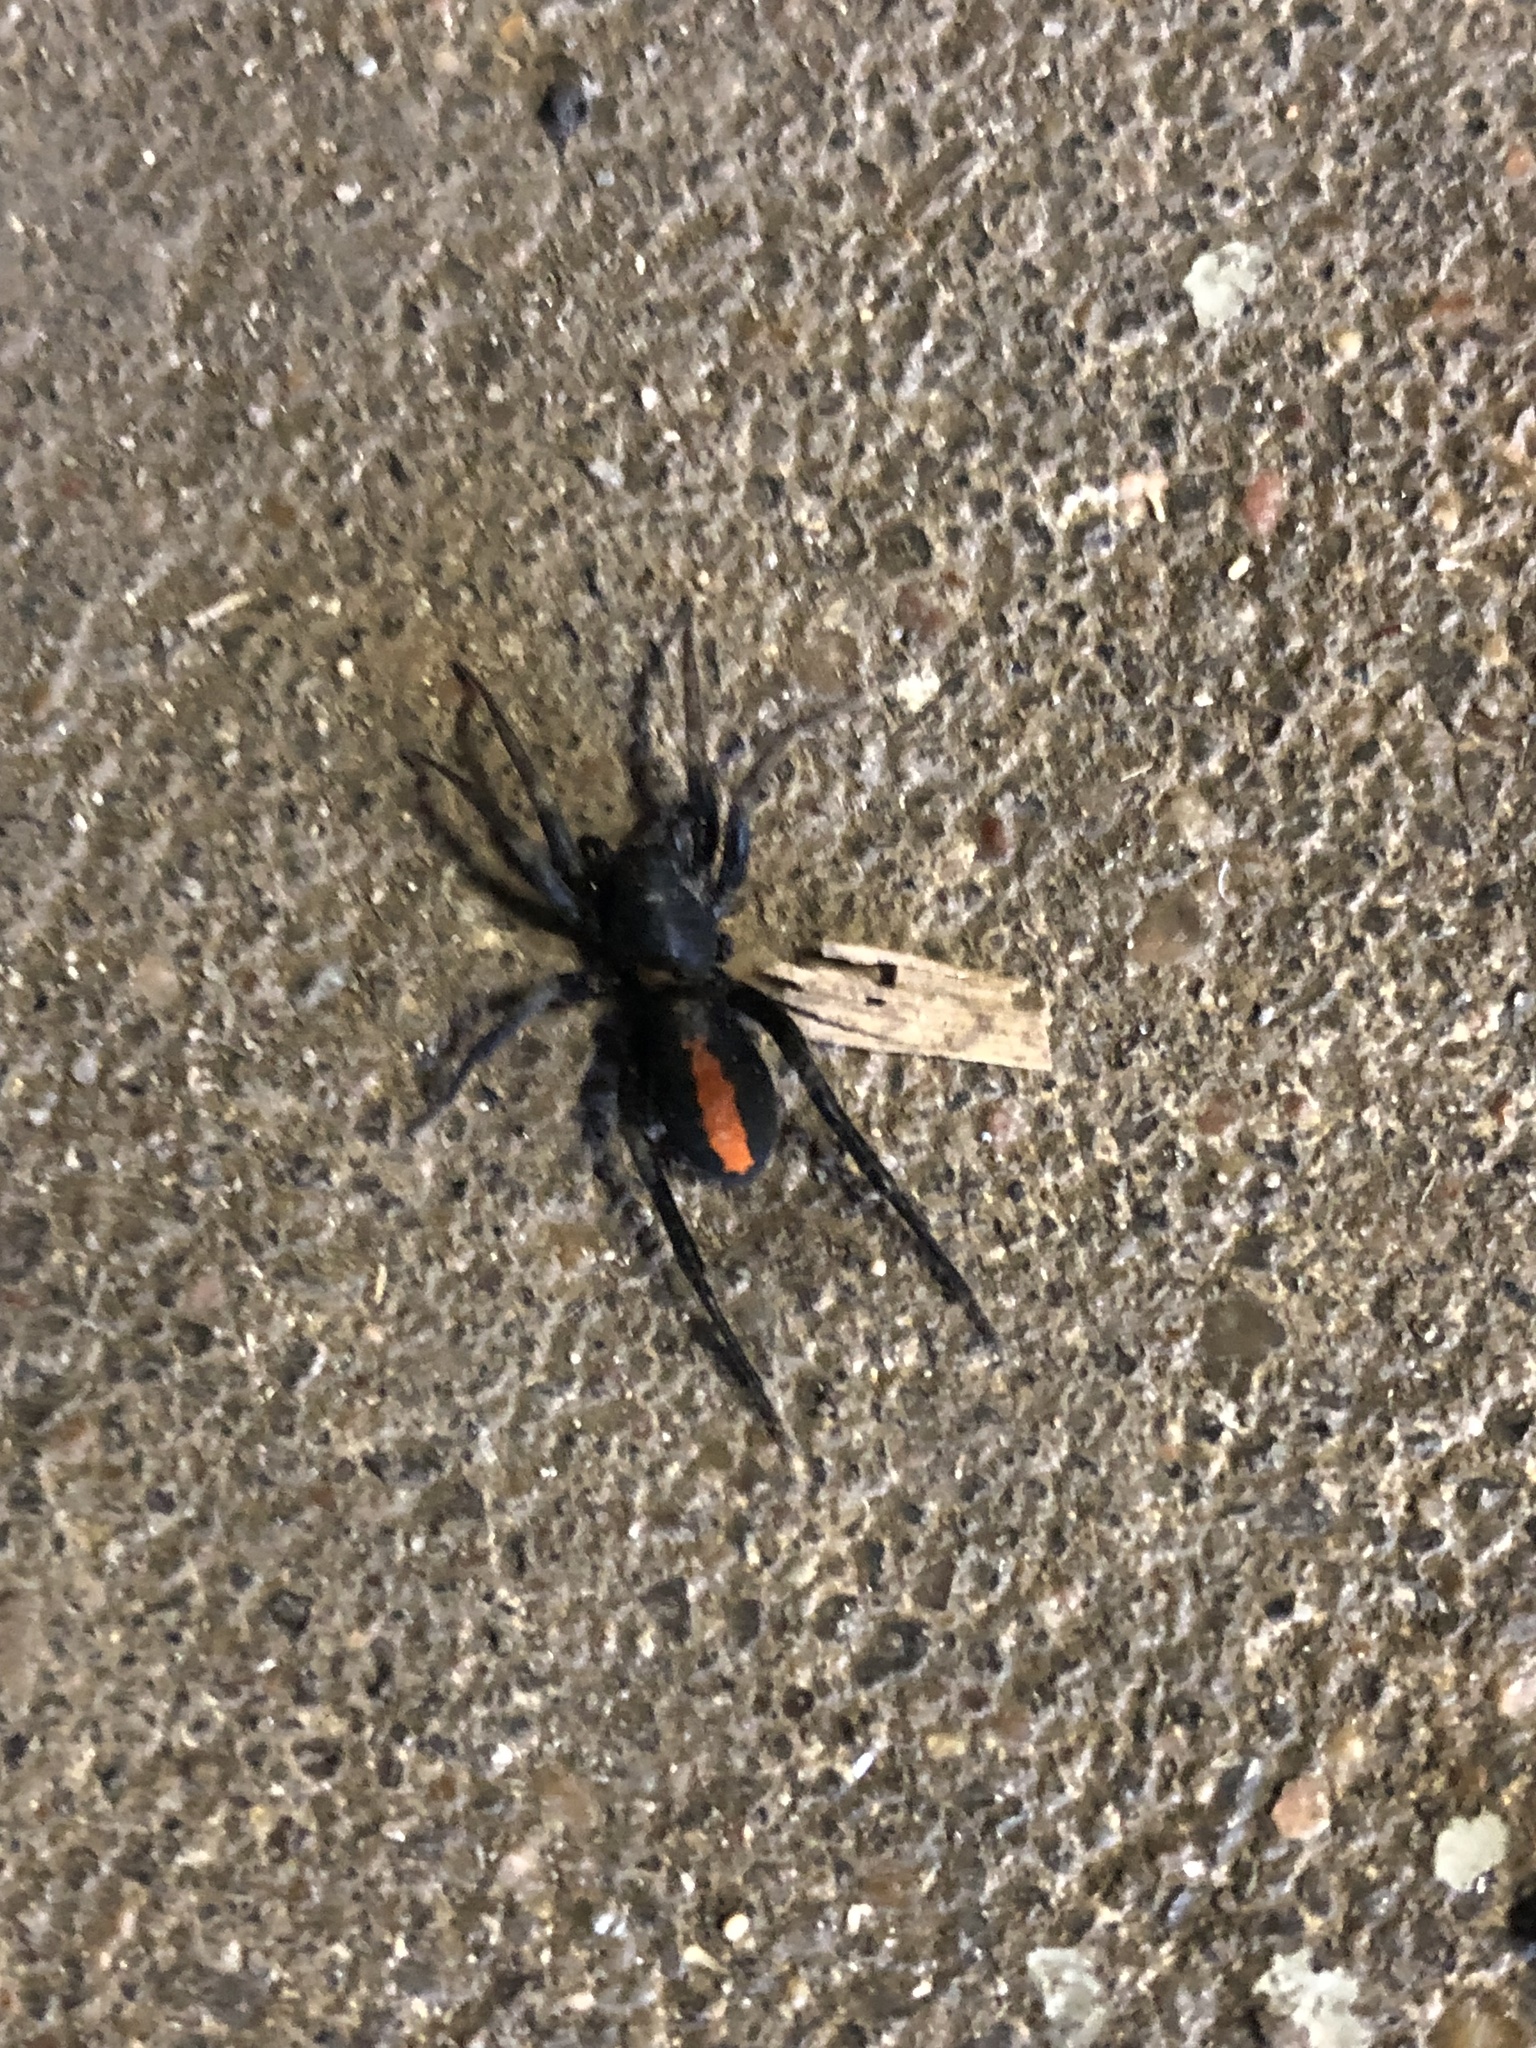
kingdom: Animalia
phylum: Arthropoda
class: Arachnida
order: Araneae
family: Corinnidae
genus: Castianeira
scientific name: Castianeira descripta
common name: Red-spotted ant-mimic sac spider
